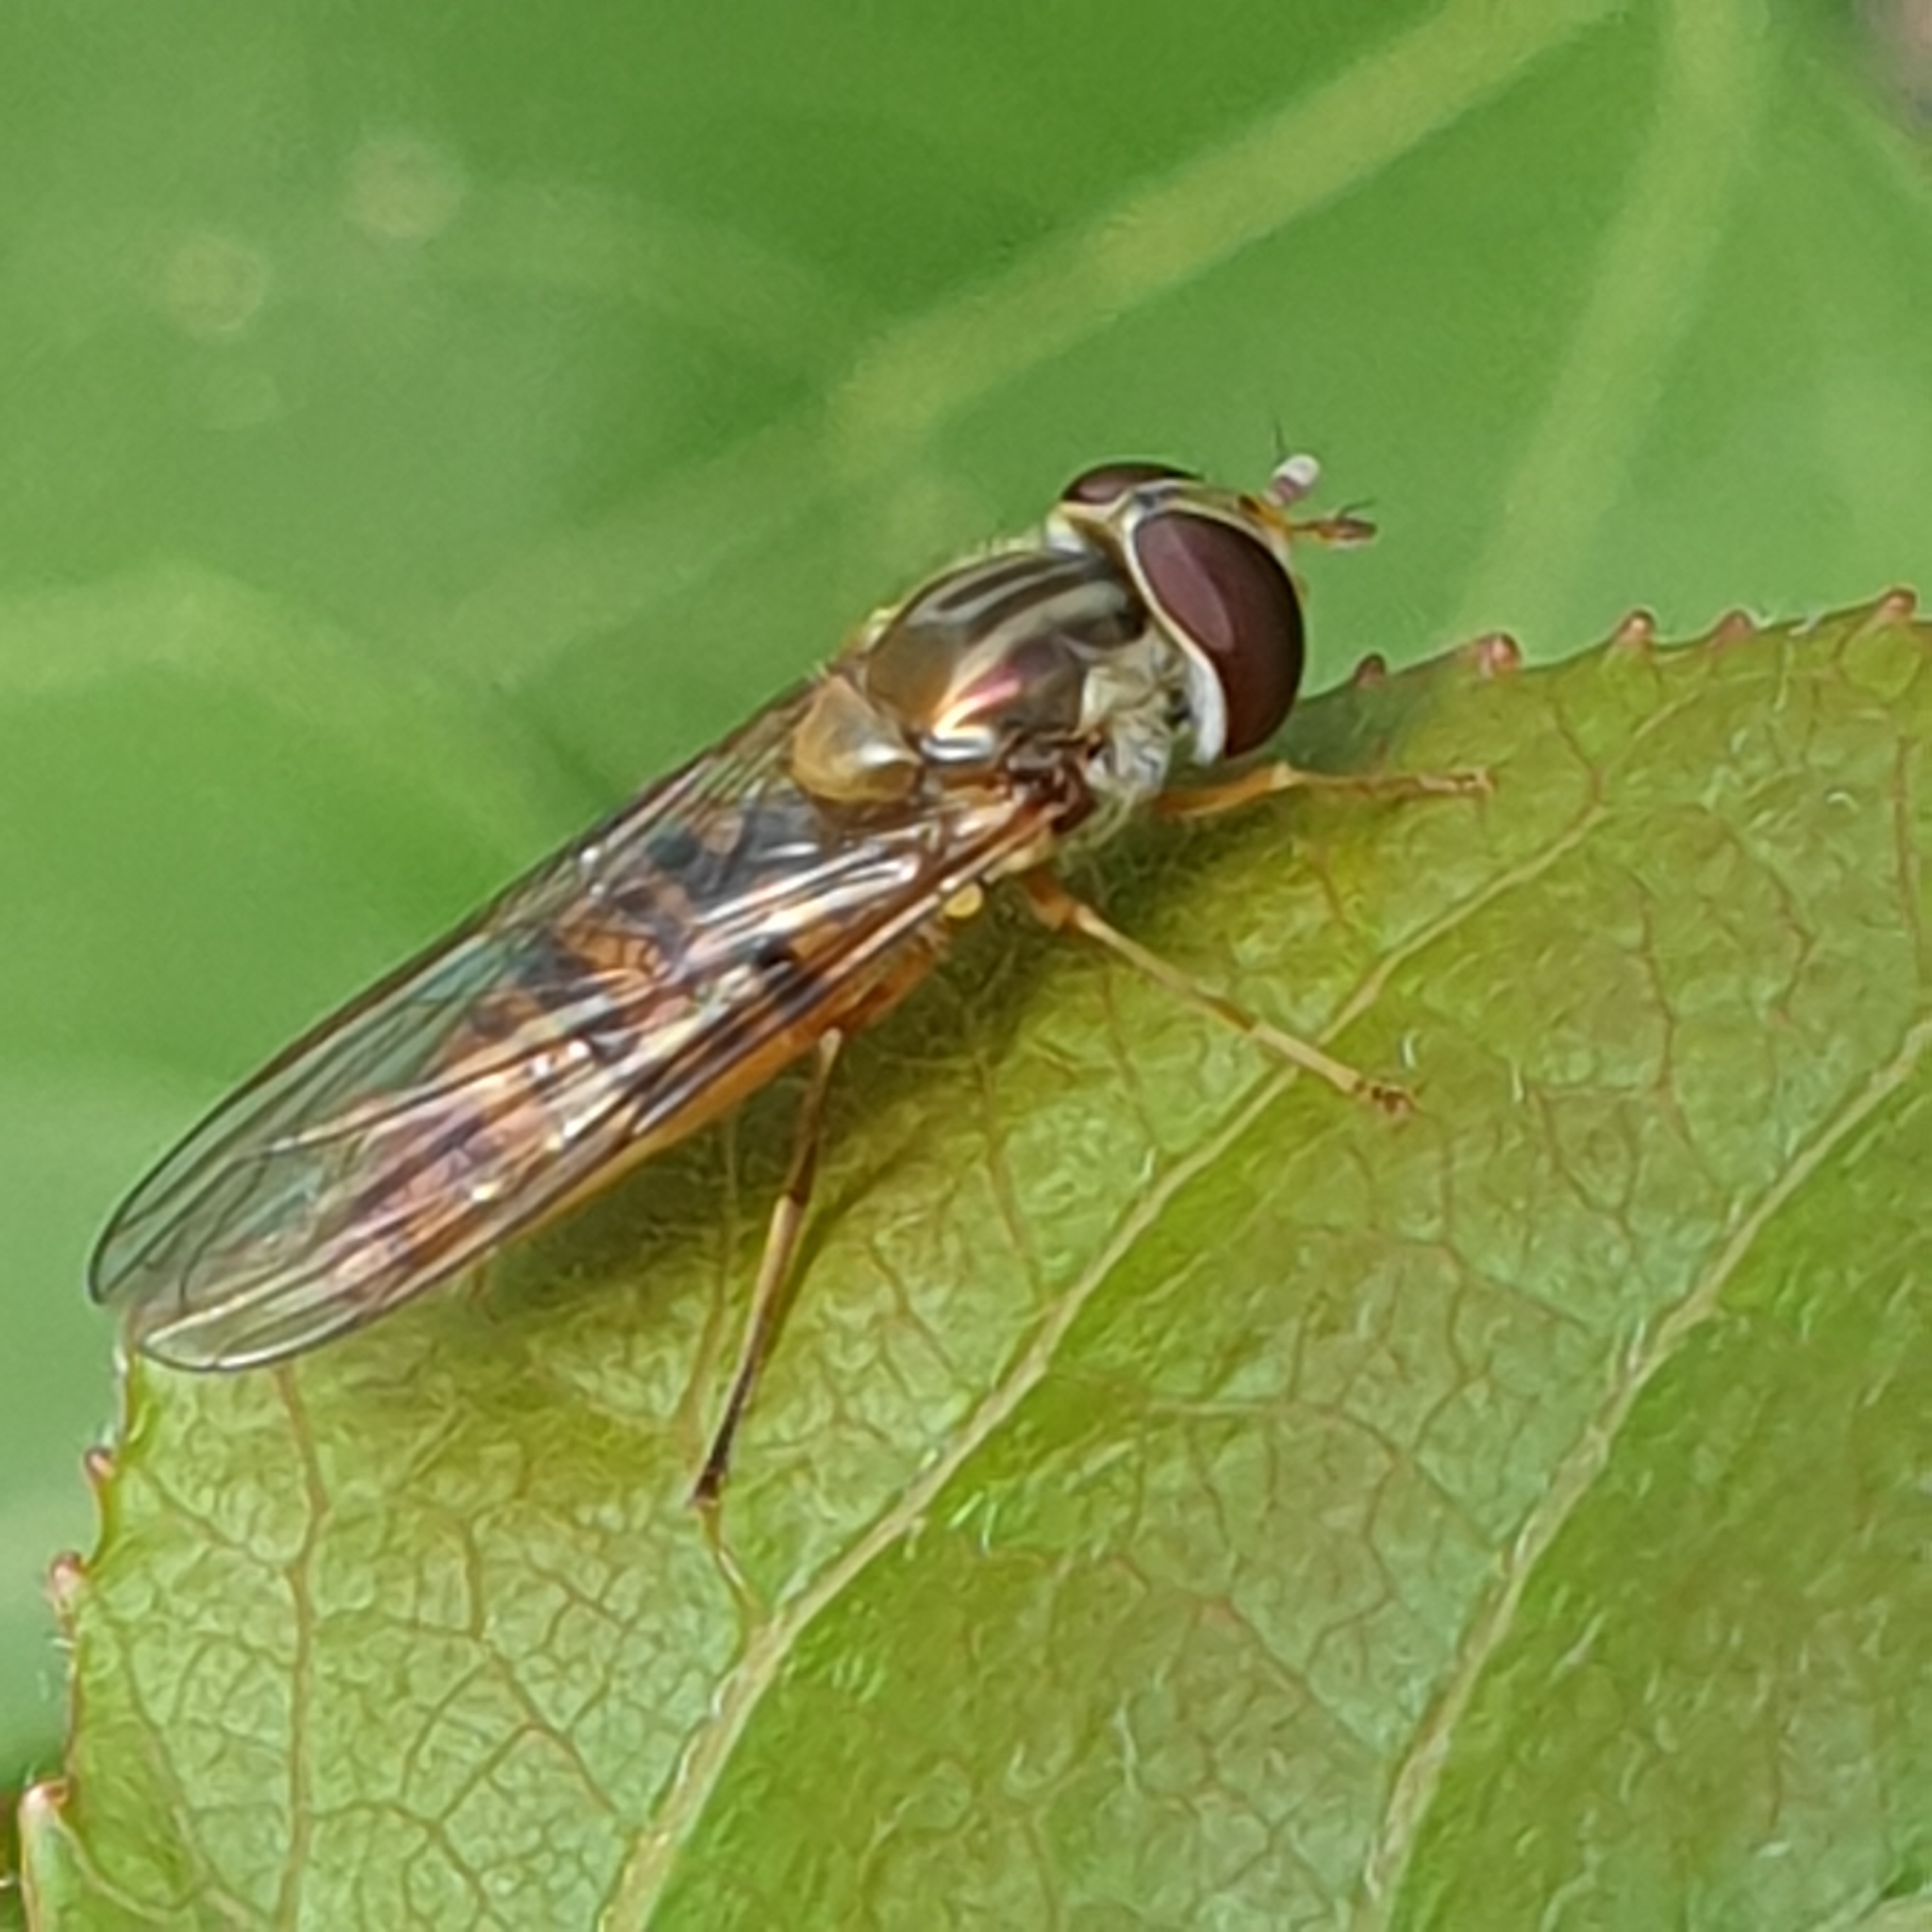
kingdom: Animalia
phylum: Arthropoda
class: Insecta
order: Diptera
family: Syrphidae
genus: Episyrphus
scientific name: Episyrphus balteatus
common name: Marmalade hoverfly
